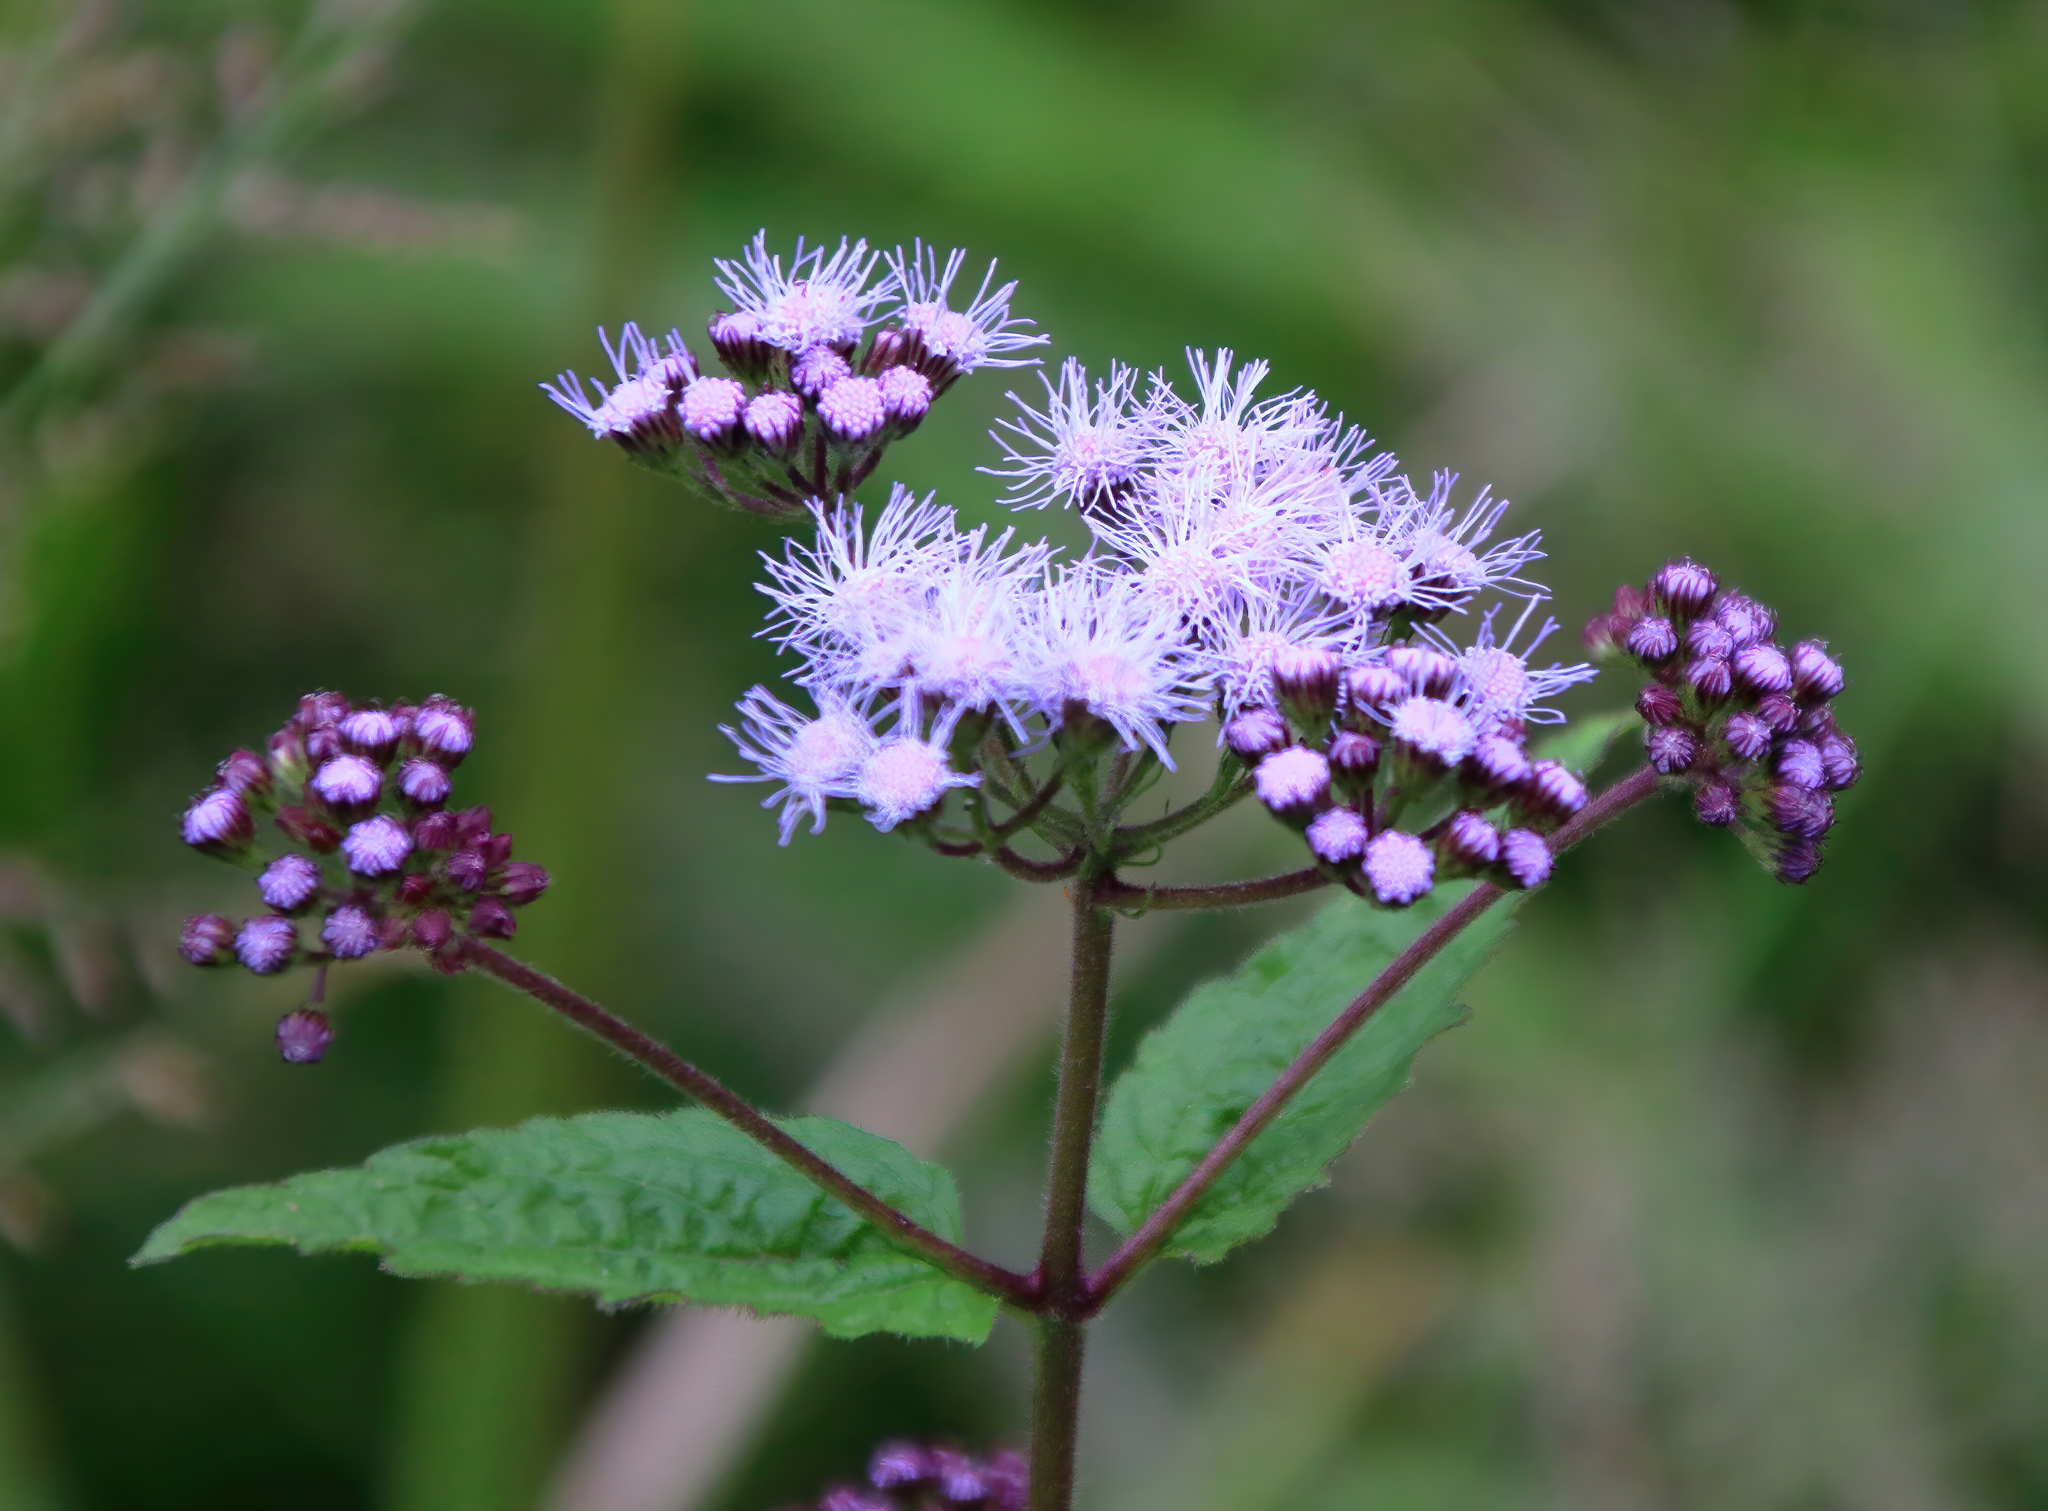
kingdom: Plantae
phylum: Tracheophyta
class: Magnoliopsida
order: Asterales
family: Asteraceae
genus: Conoclinium
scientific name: Conoclinium coelestinum
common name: Blue mistflower
